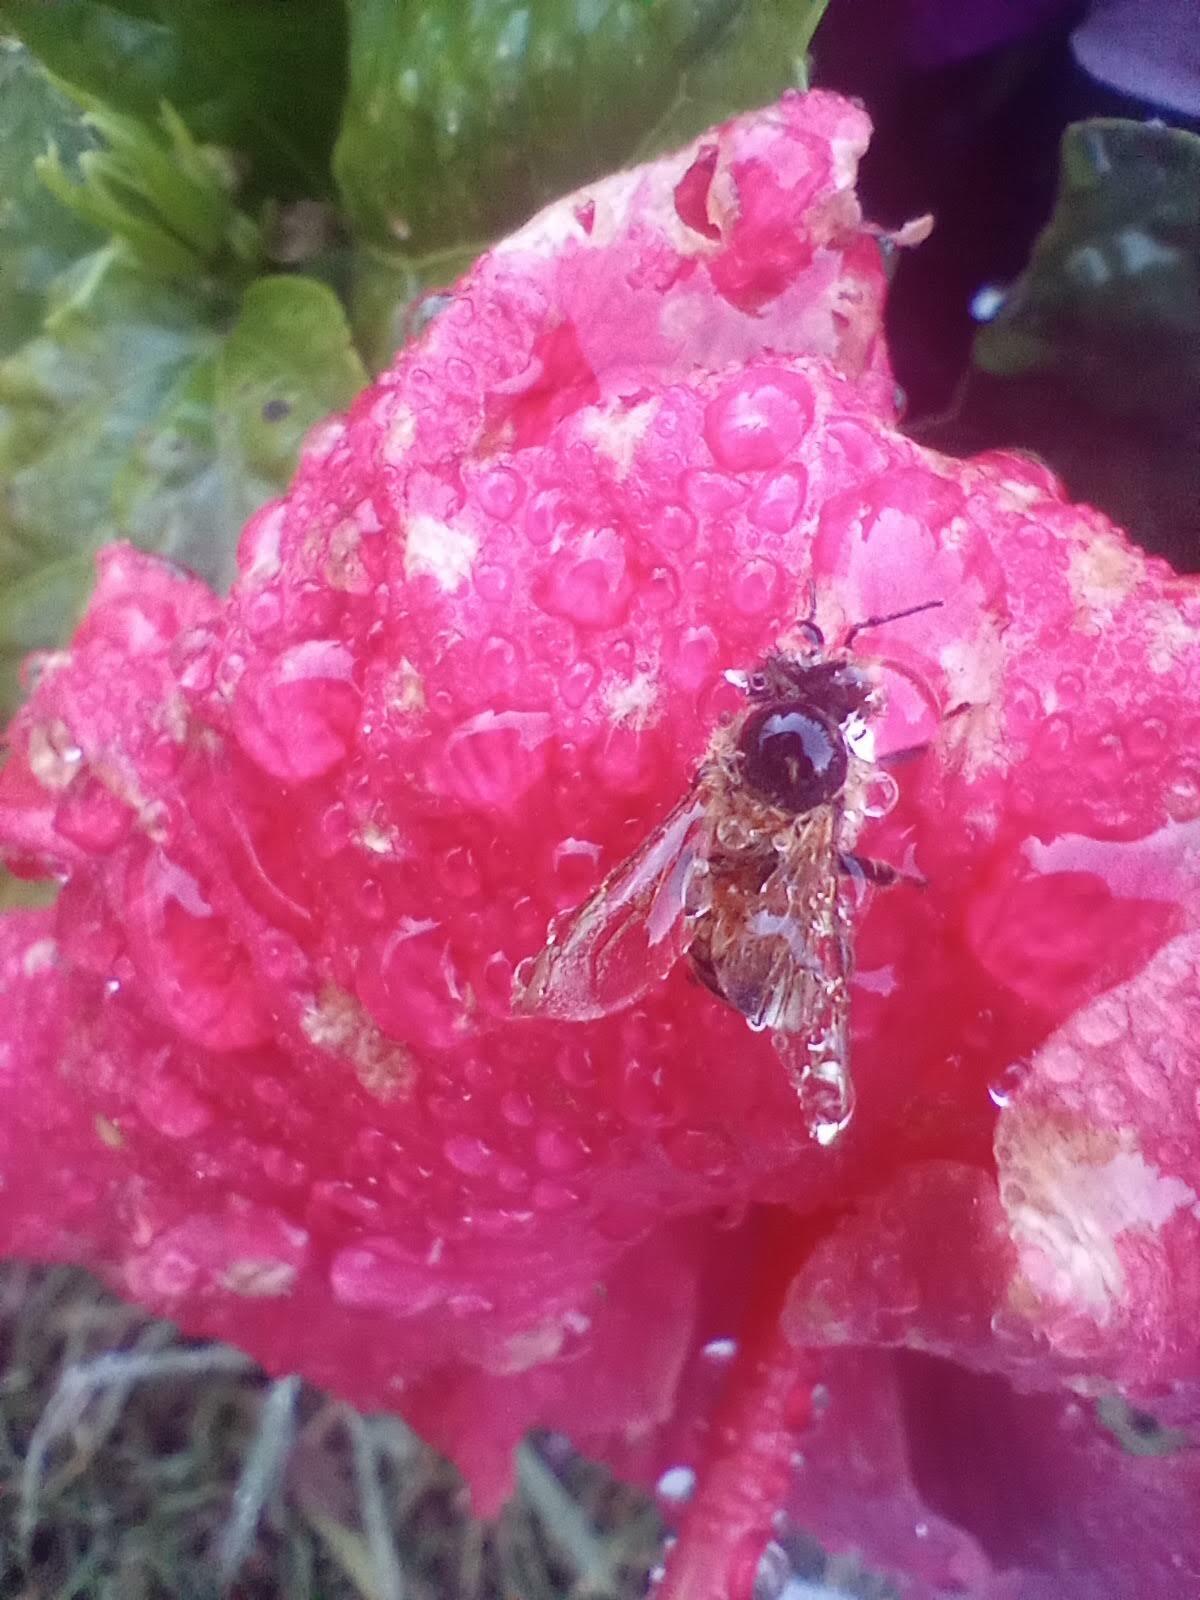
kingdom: Animalia
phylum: Arthropoda
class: Insecta
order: Hymenoptera
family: Apidae
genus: Apis
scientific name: Apis mellifera
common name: Honey bee
